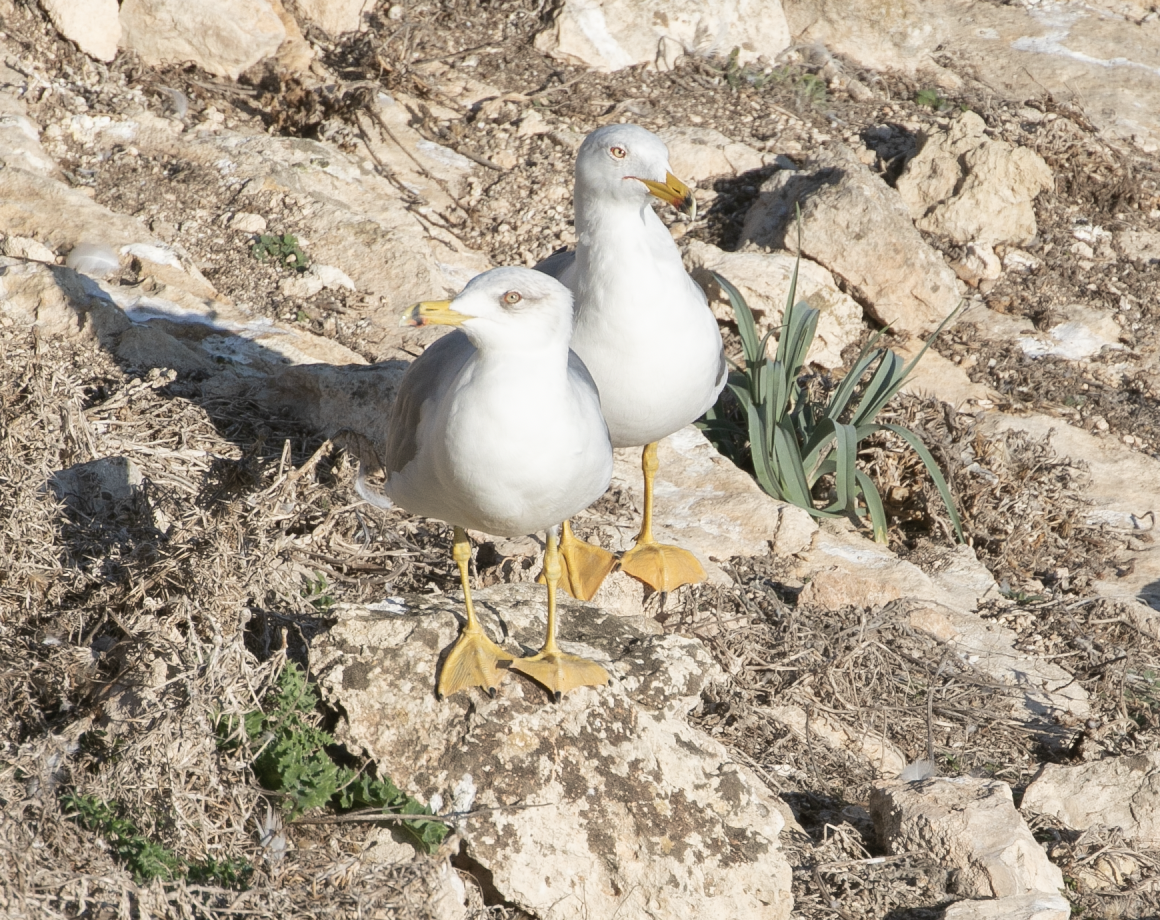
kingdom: Animalia
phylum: Chordata
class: Aves
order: Charadriiformes
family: Laridae
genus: Larus
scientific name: Larus michahellis
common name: Yellow-legged gull
